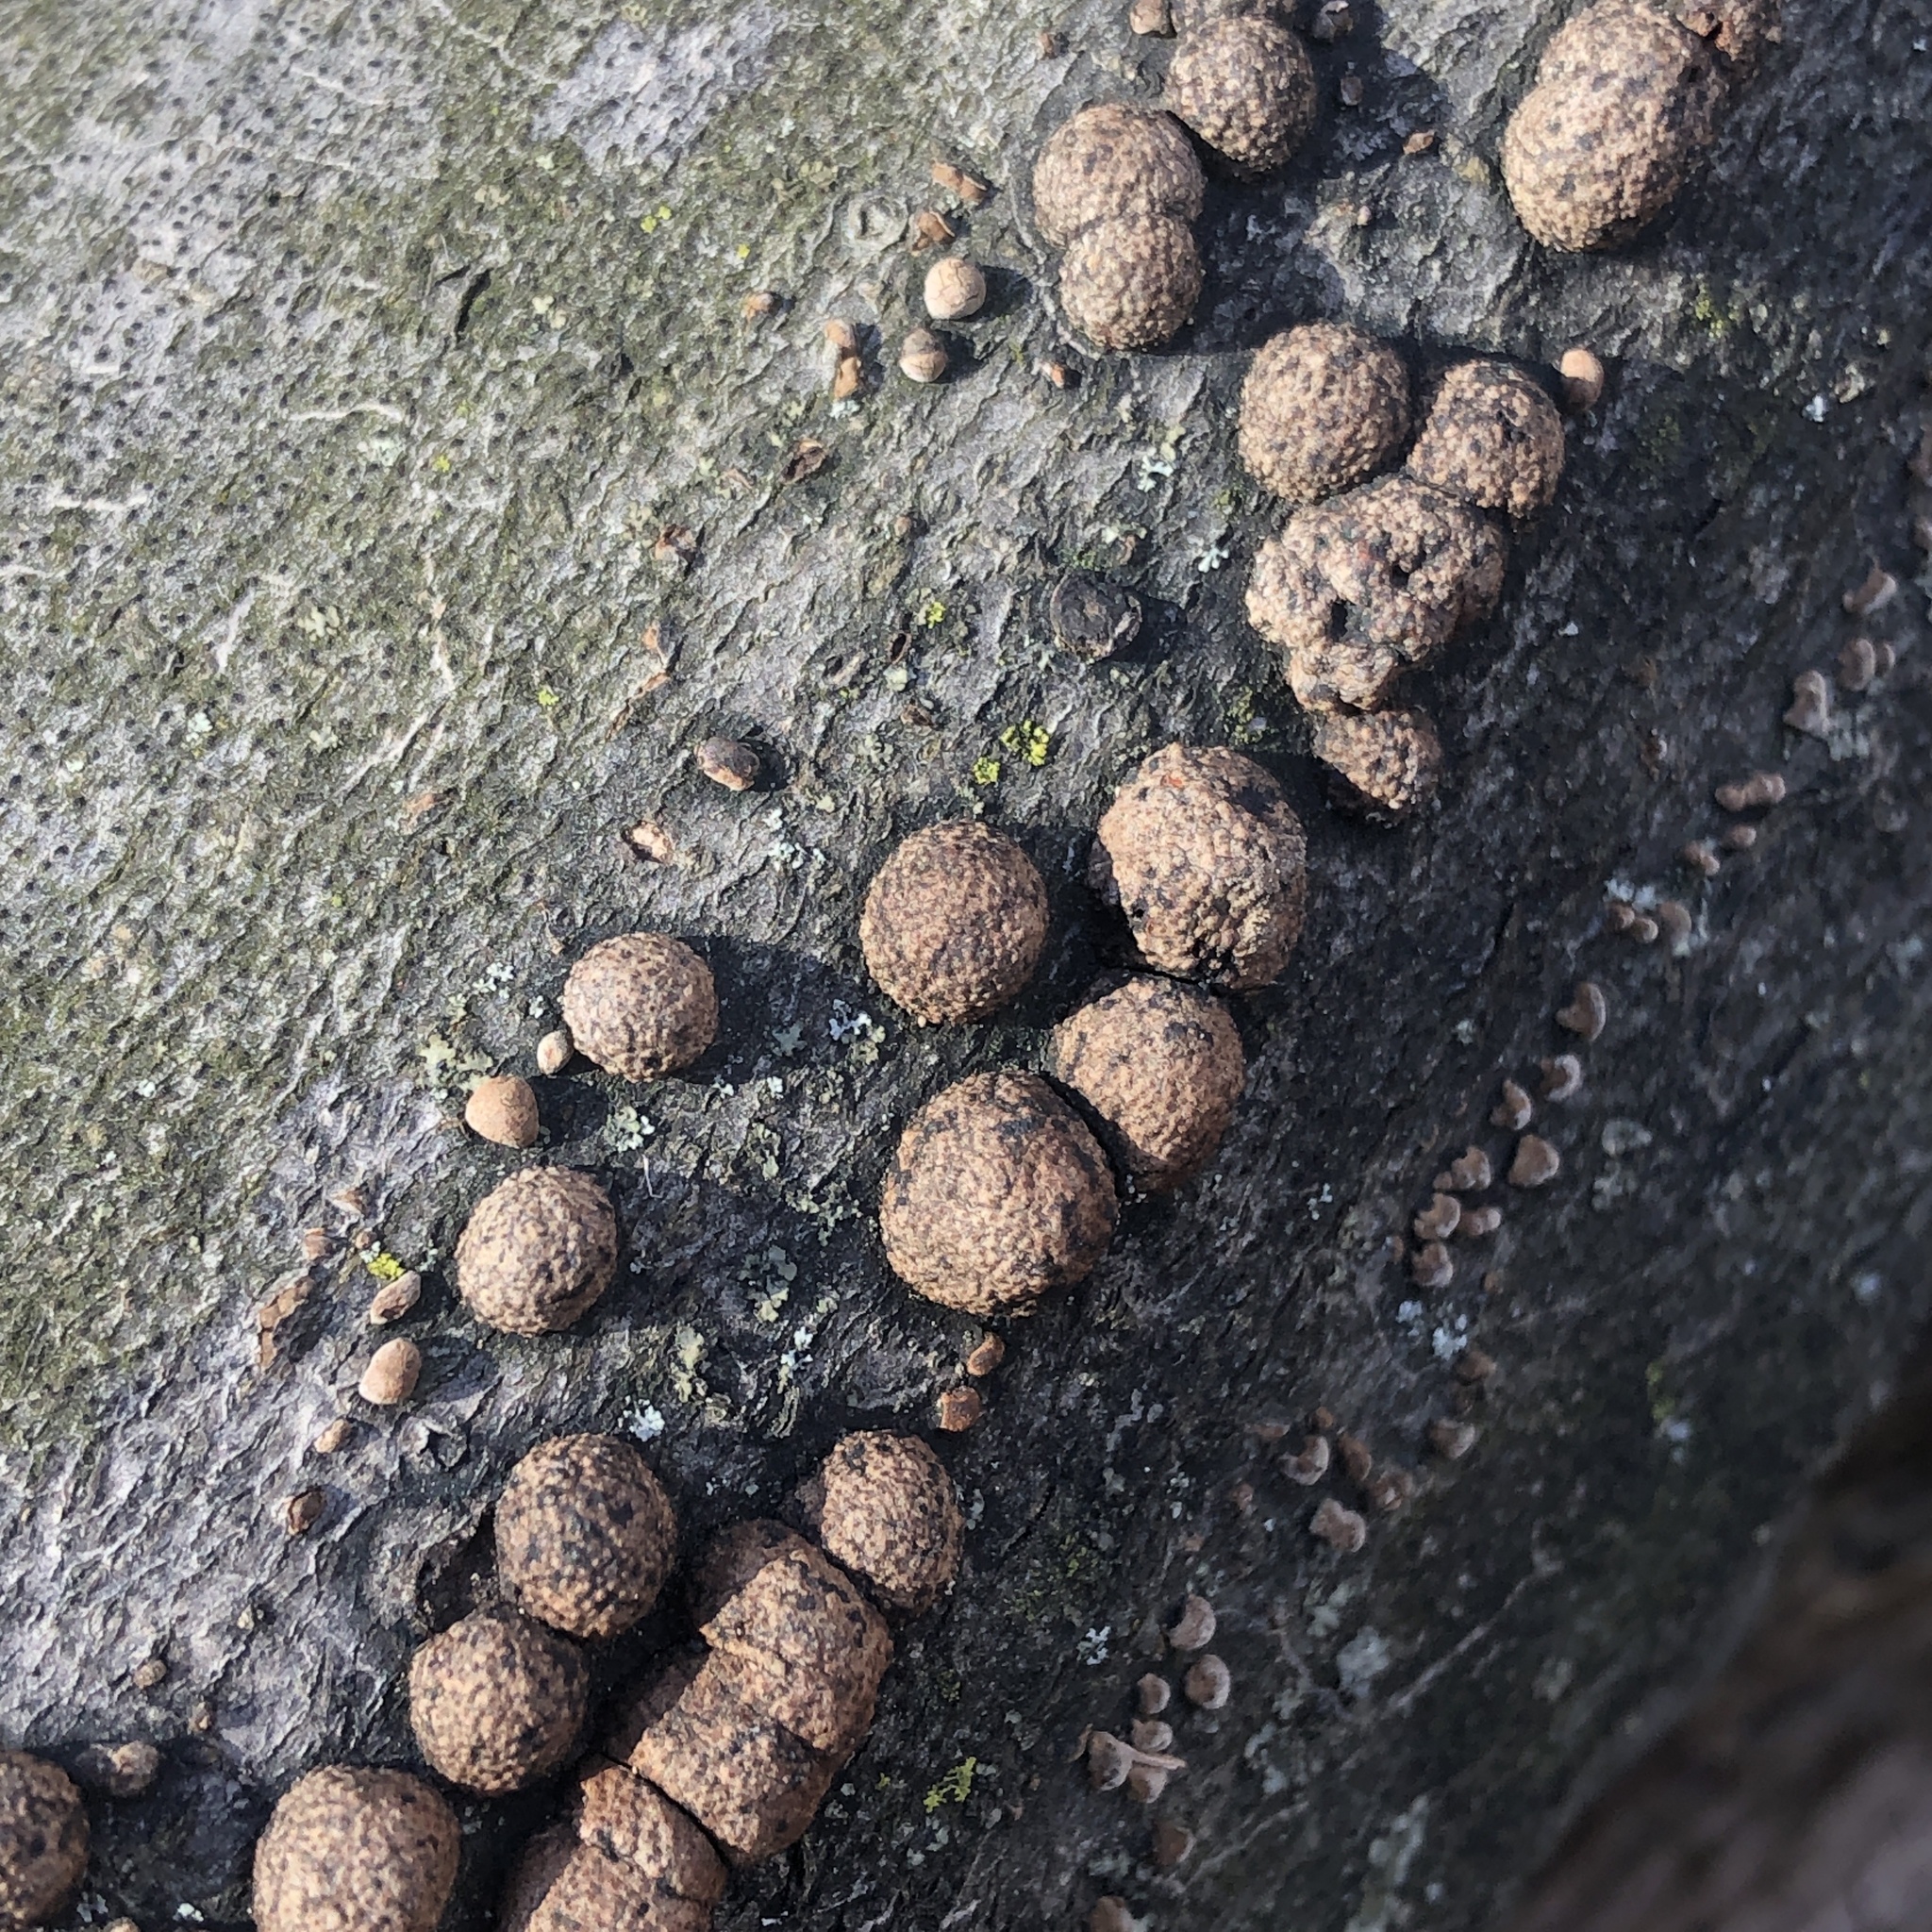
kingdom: Fungi
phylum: Ascomycota
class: Sordariomycetes
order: Xylariales
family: Hypoxylaceae
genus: Hypoxylon
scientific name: Hypoxylon fragiforme
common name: Beech woodwart
